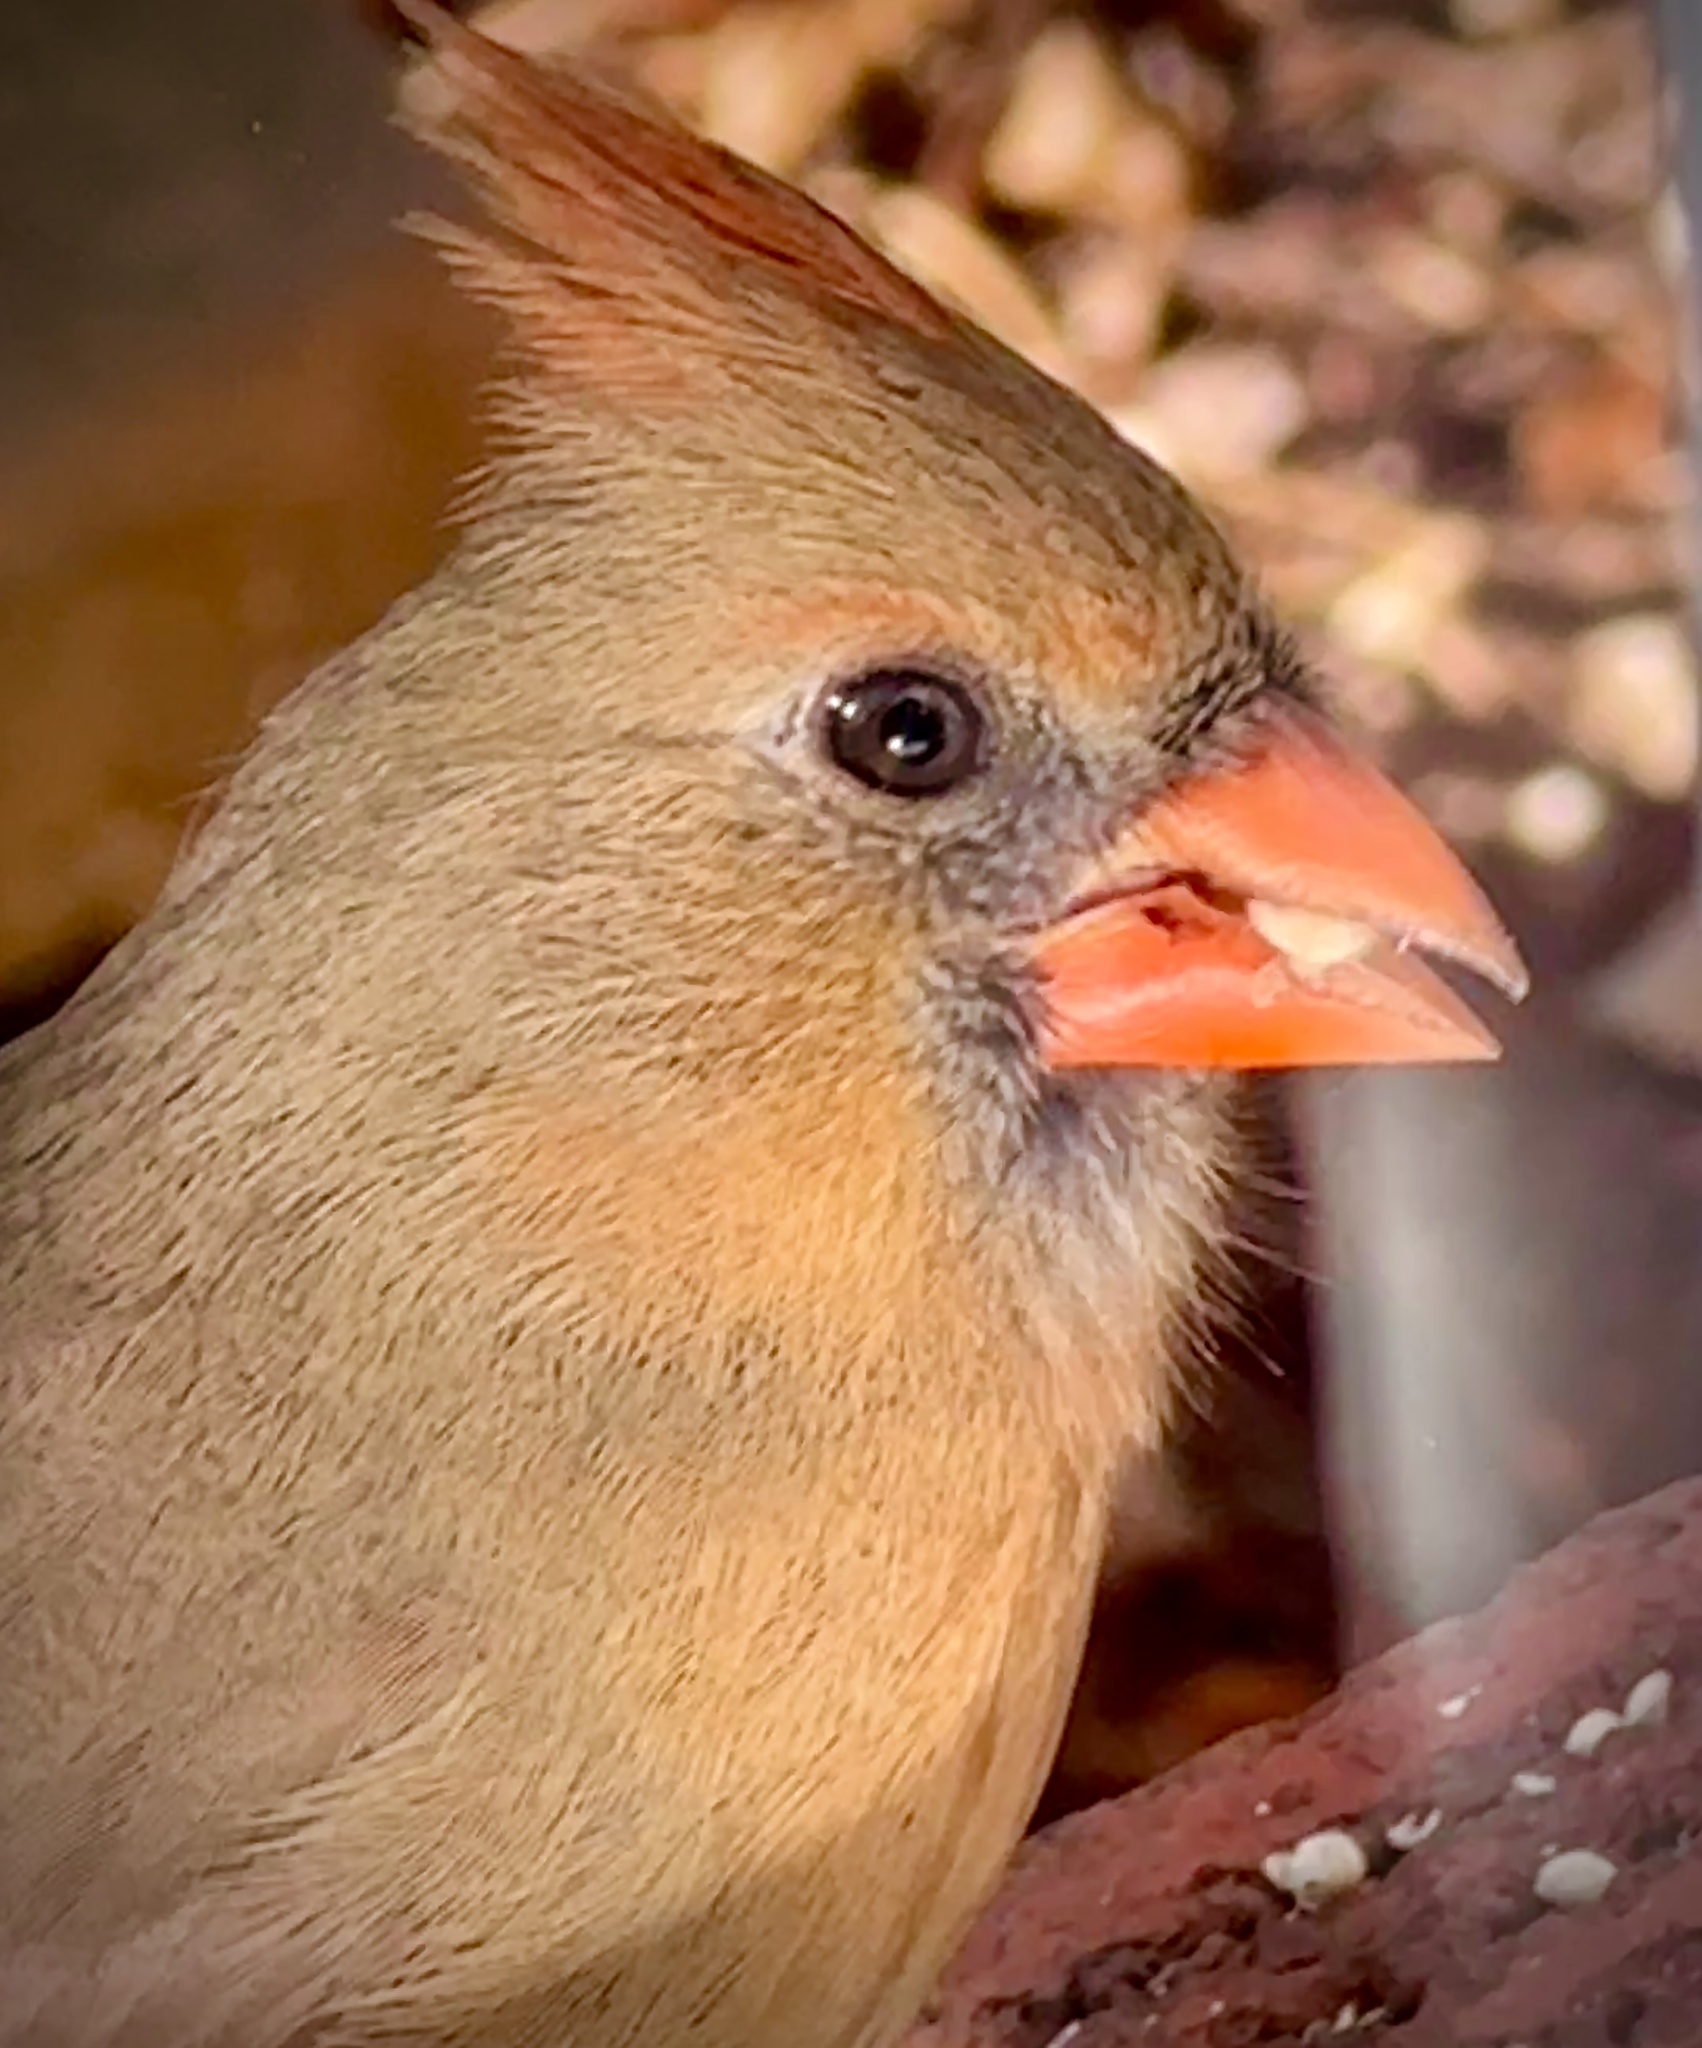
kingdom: Animalia
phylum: Chordata
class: Aves
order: Passeriformes
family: Cardinalidae
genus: Cardinalis
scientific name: Cardinalis cardinalis
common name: Northern cardinal
